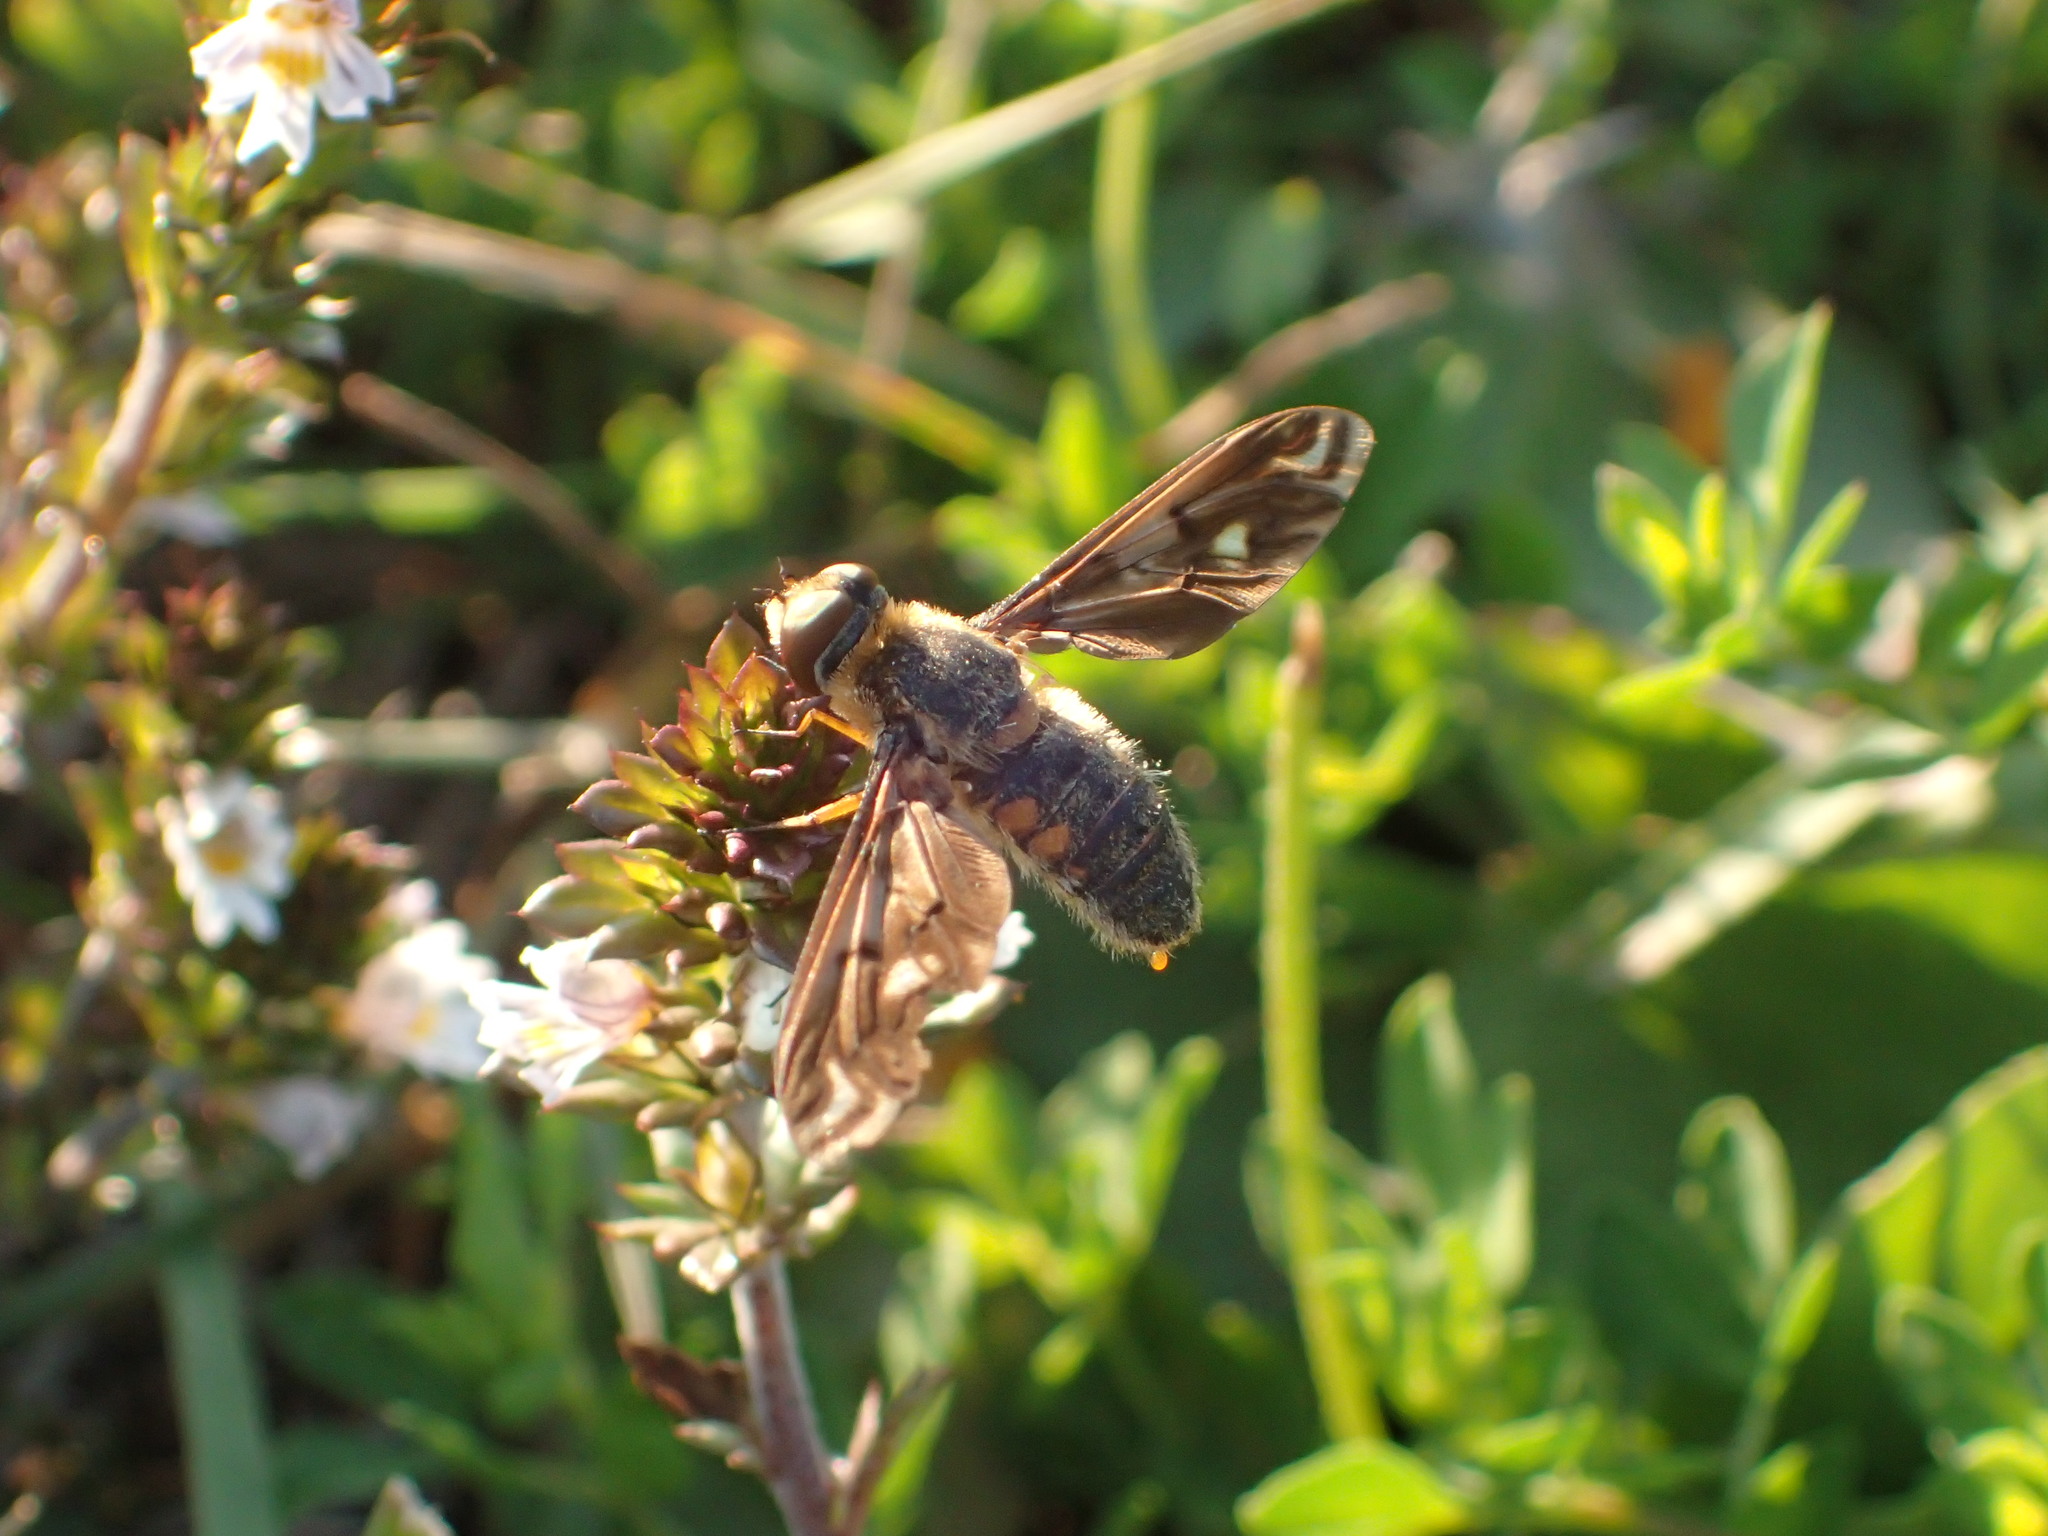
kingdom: Animalia
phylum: Arthropoda
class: Insecta
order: Diptera
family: Bombyliidae
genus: Poecilanthrax
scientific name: Poecilanthrax alcyon
